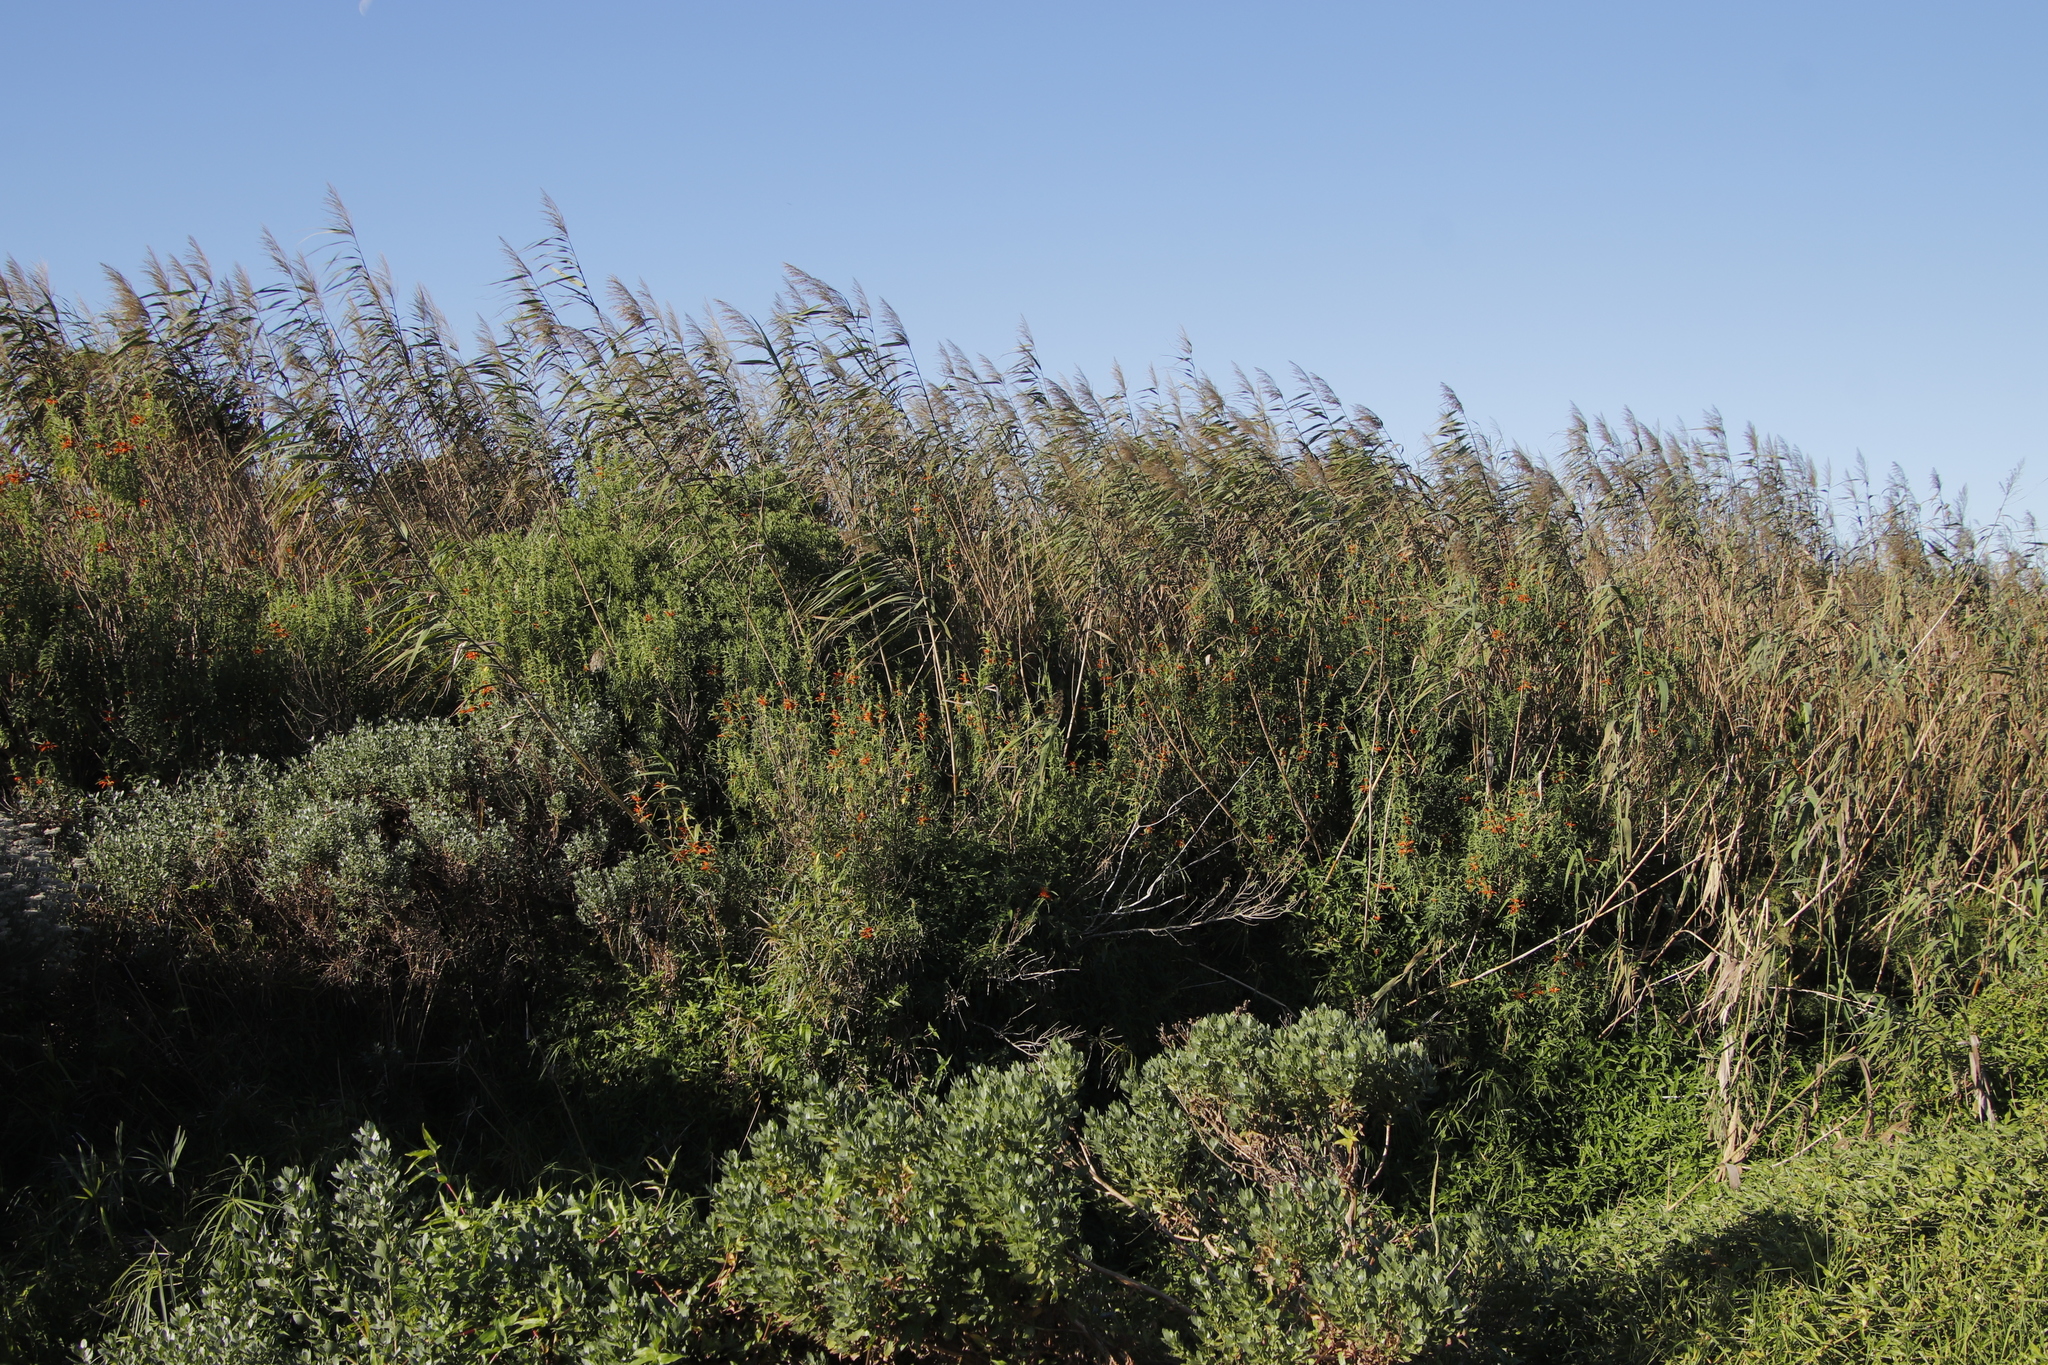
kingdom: Plantae
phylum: Tracheophyta
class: Liliopsida
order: Poales
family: Poaceae
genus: Phragmites
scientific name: Phragmites australis
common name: Common reed
